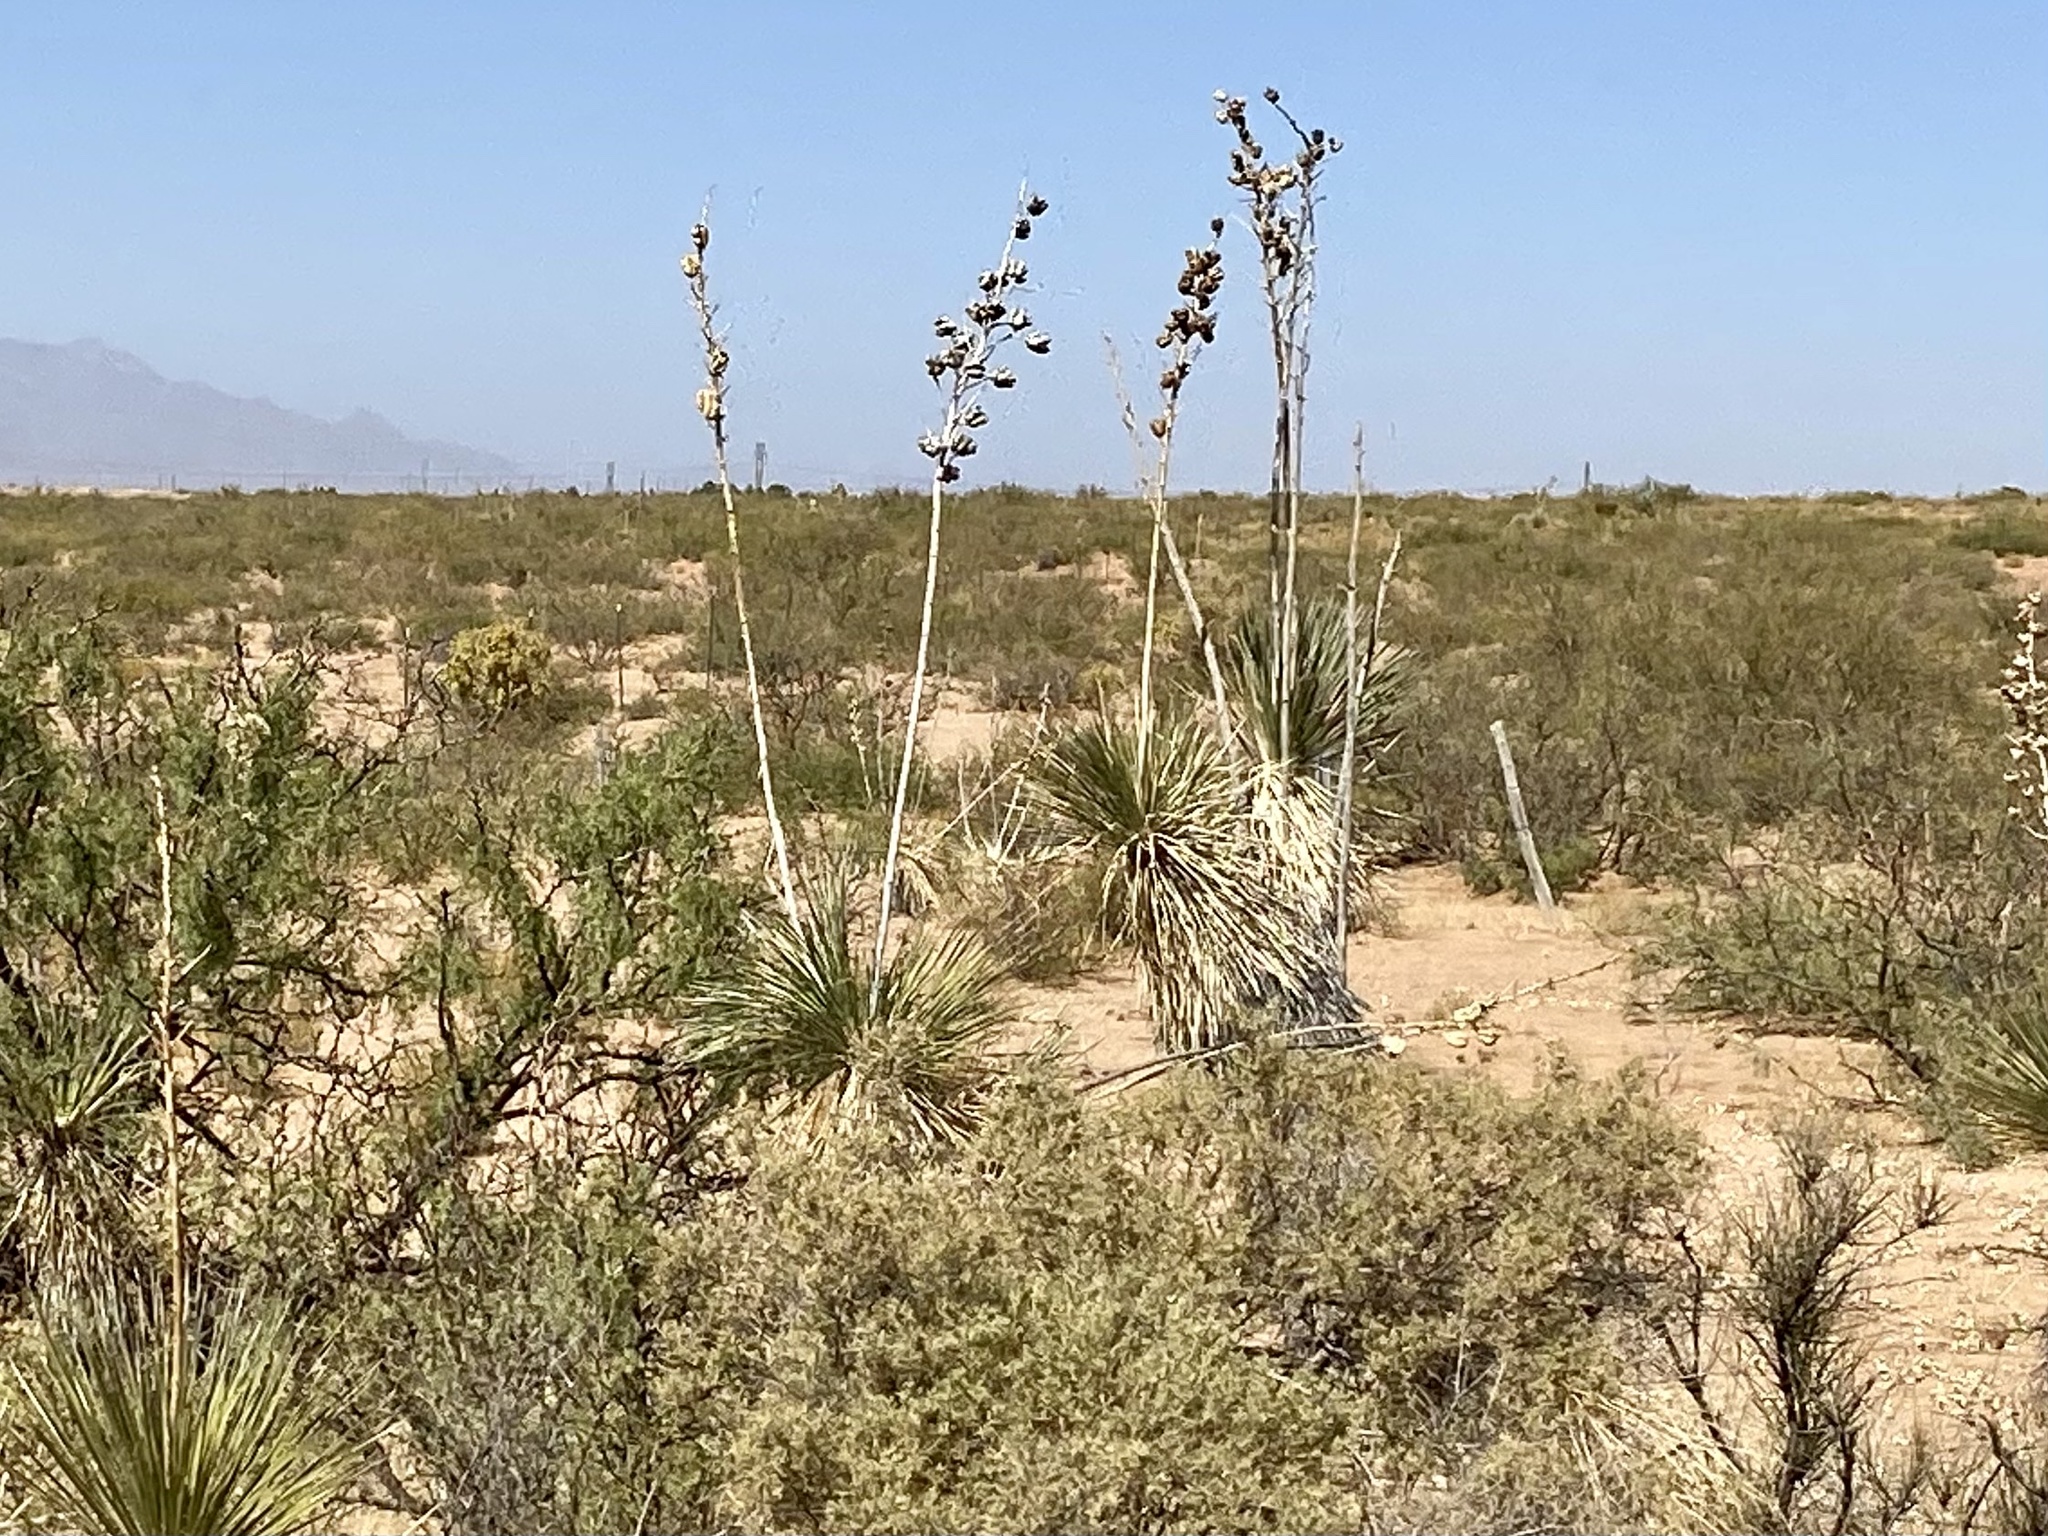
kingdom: Plantae
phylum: Tracheophyta
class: Liliopsida
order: Asparagales
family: Asparagaceae
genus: Yucca
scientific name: Yucca elata
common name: Palmella
